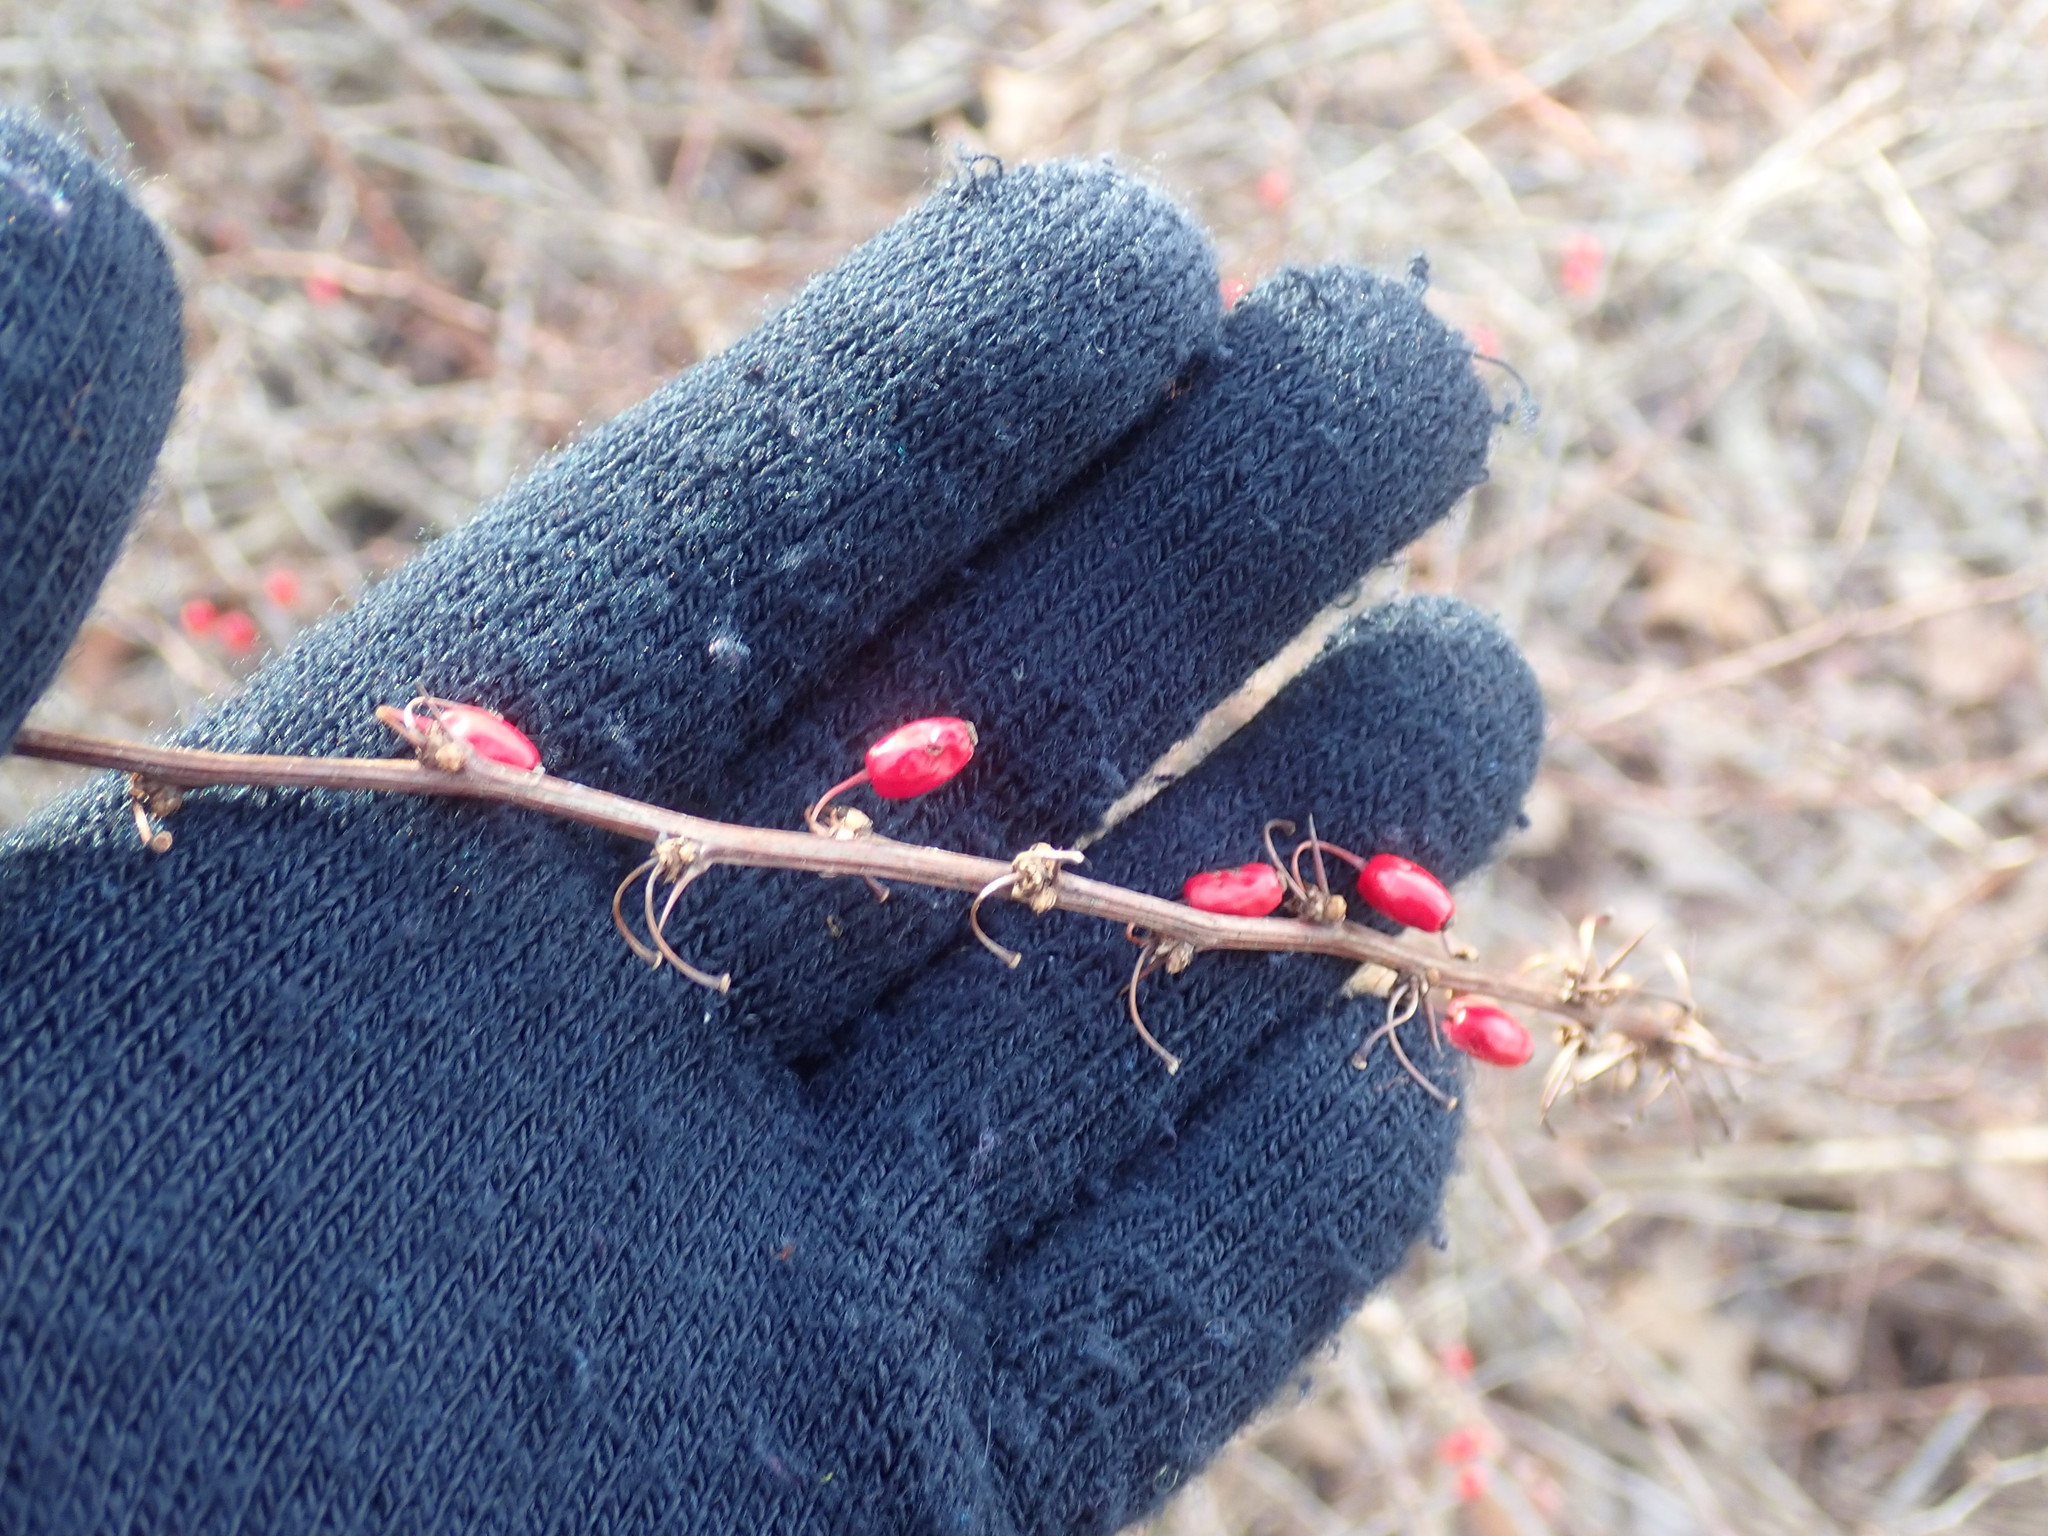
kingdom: Plantae
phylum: Tracheophyta
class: Magnoliopsida
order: Ranunculales
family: Berberidaceae
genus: Berberis
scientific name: Berberis thunbergii
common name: Japanese barberry
